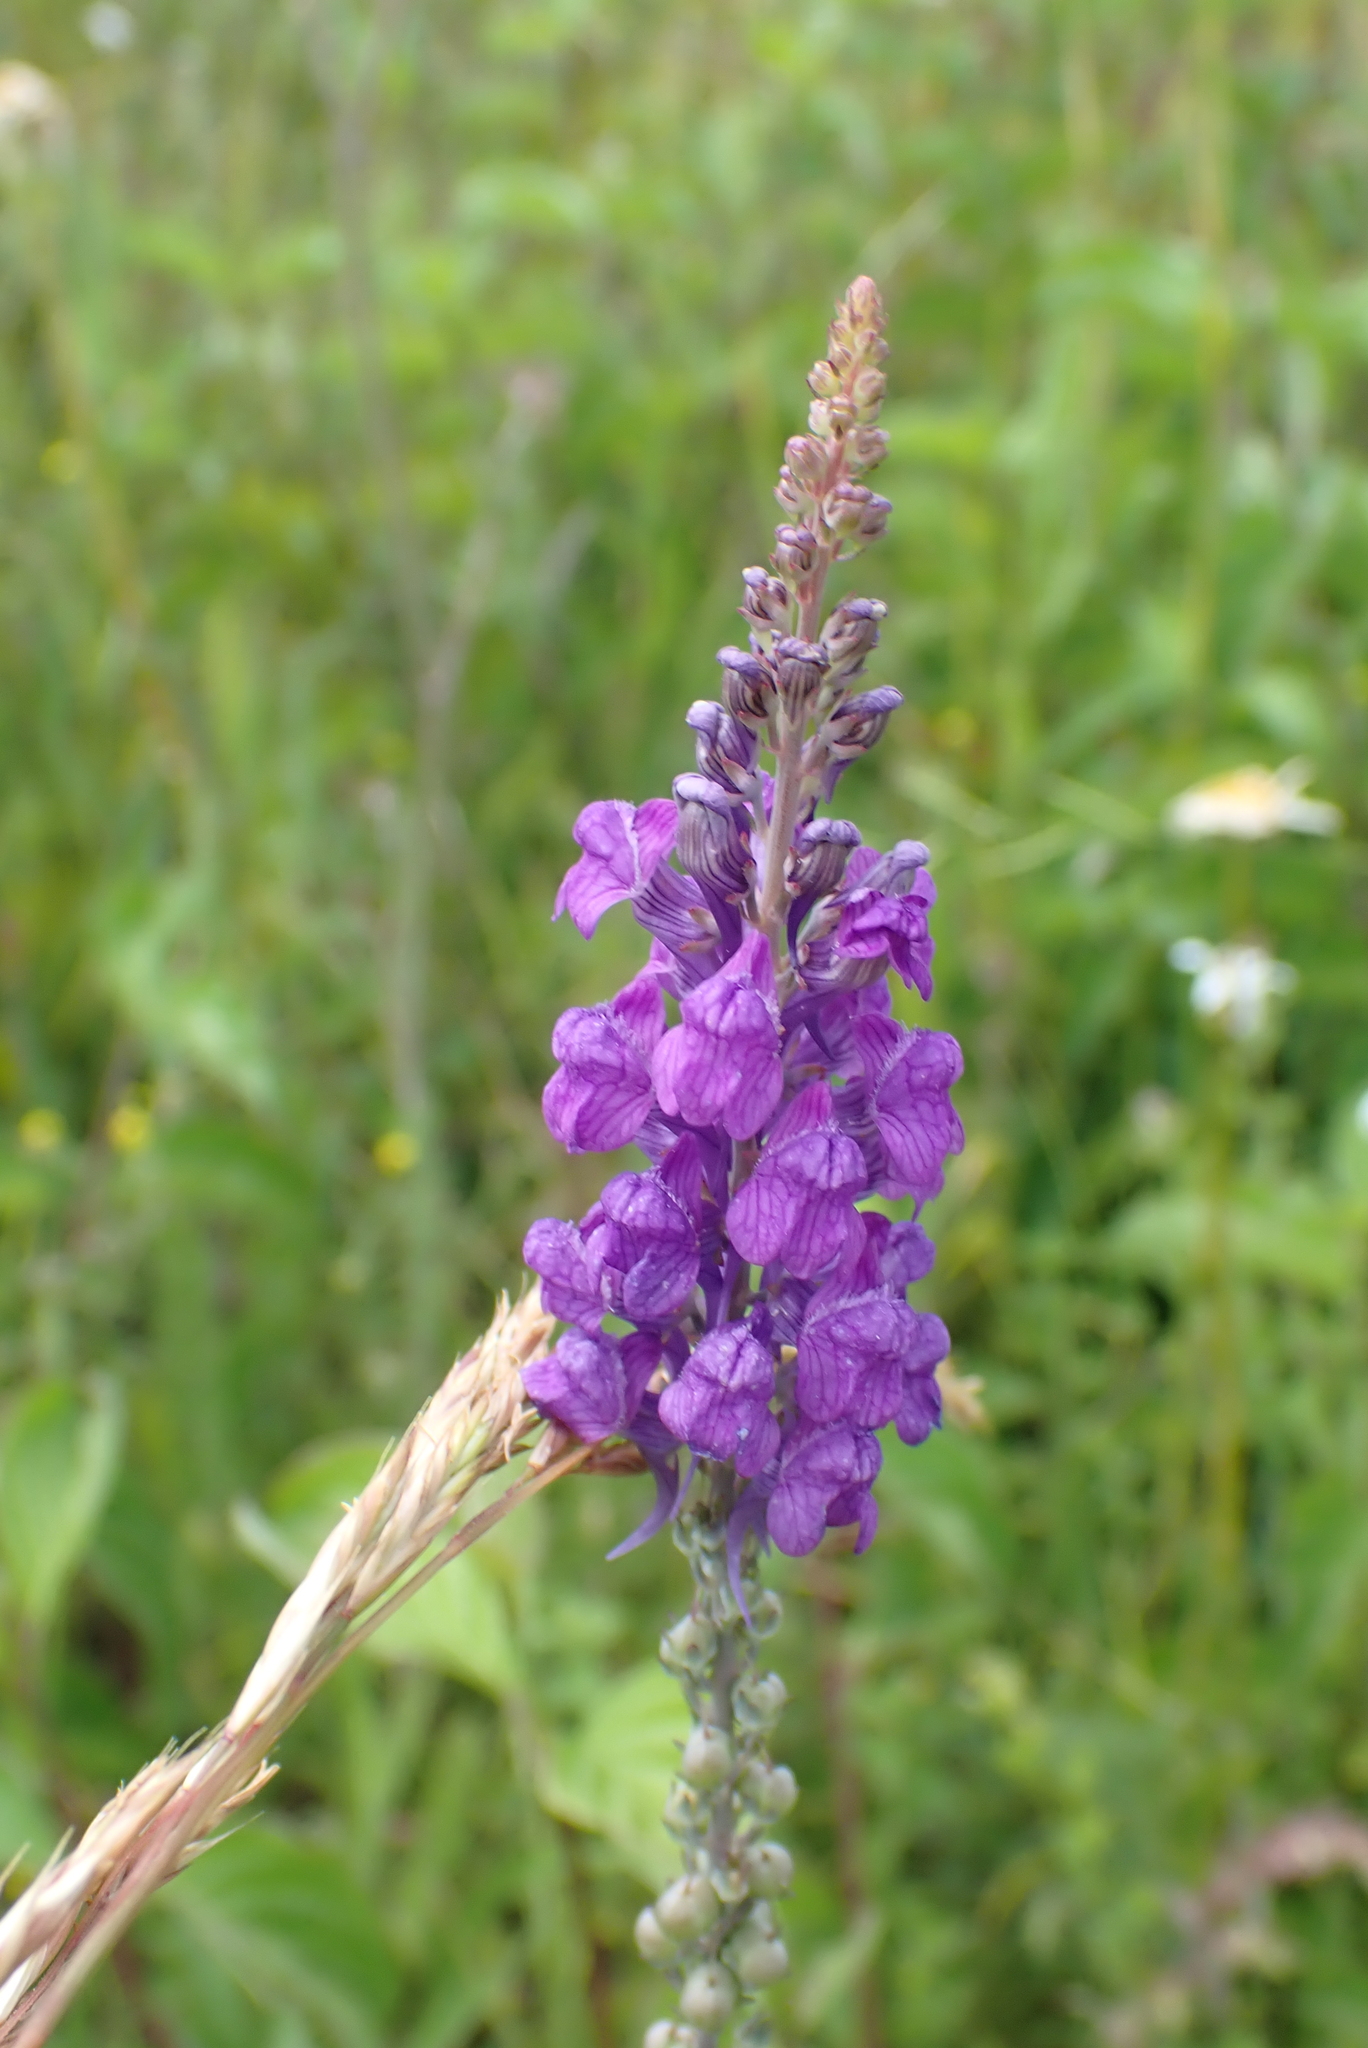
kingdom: Plantae
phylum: Tracheophyta
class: Magnoliopsida
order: Lamiales
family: Plantaginaceae
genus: Linaria
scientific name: Linaria purpurea
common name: Purple toadflax
